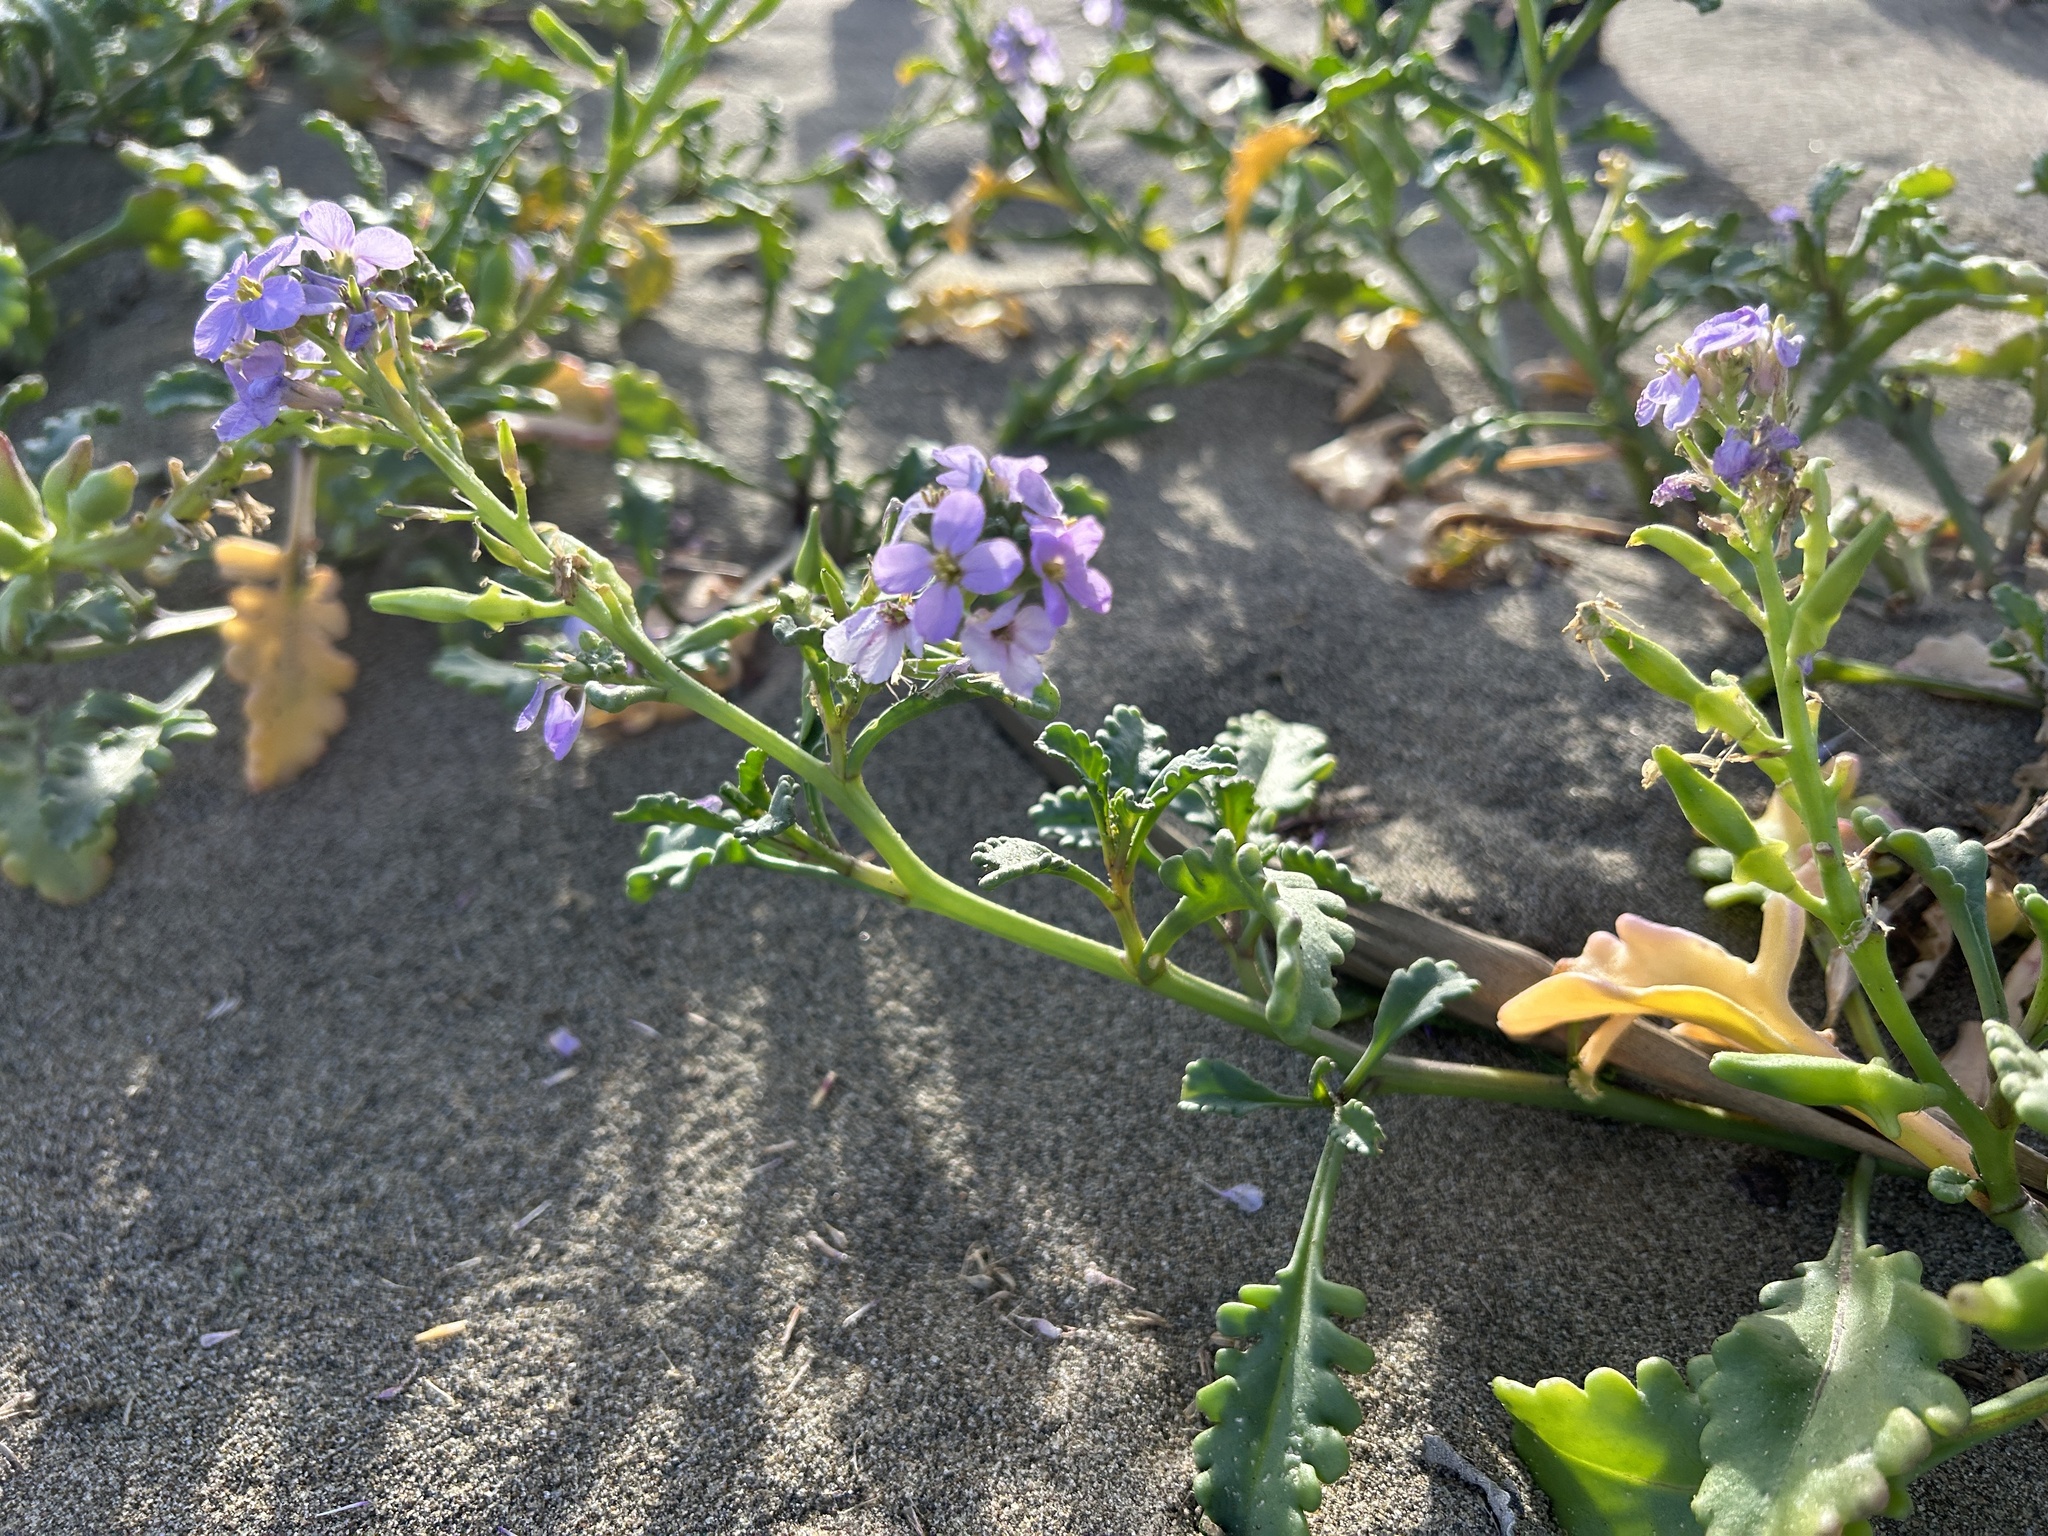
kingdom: Plantae
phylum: Tracheophyta
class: Magnoliopsida
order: Brassicales
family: Brassicaceae
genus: Cakile
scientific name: Cakile maritima
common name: Sea rocket
